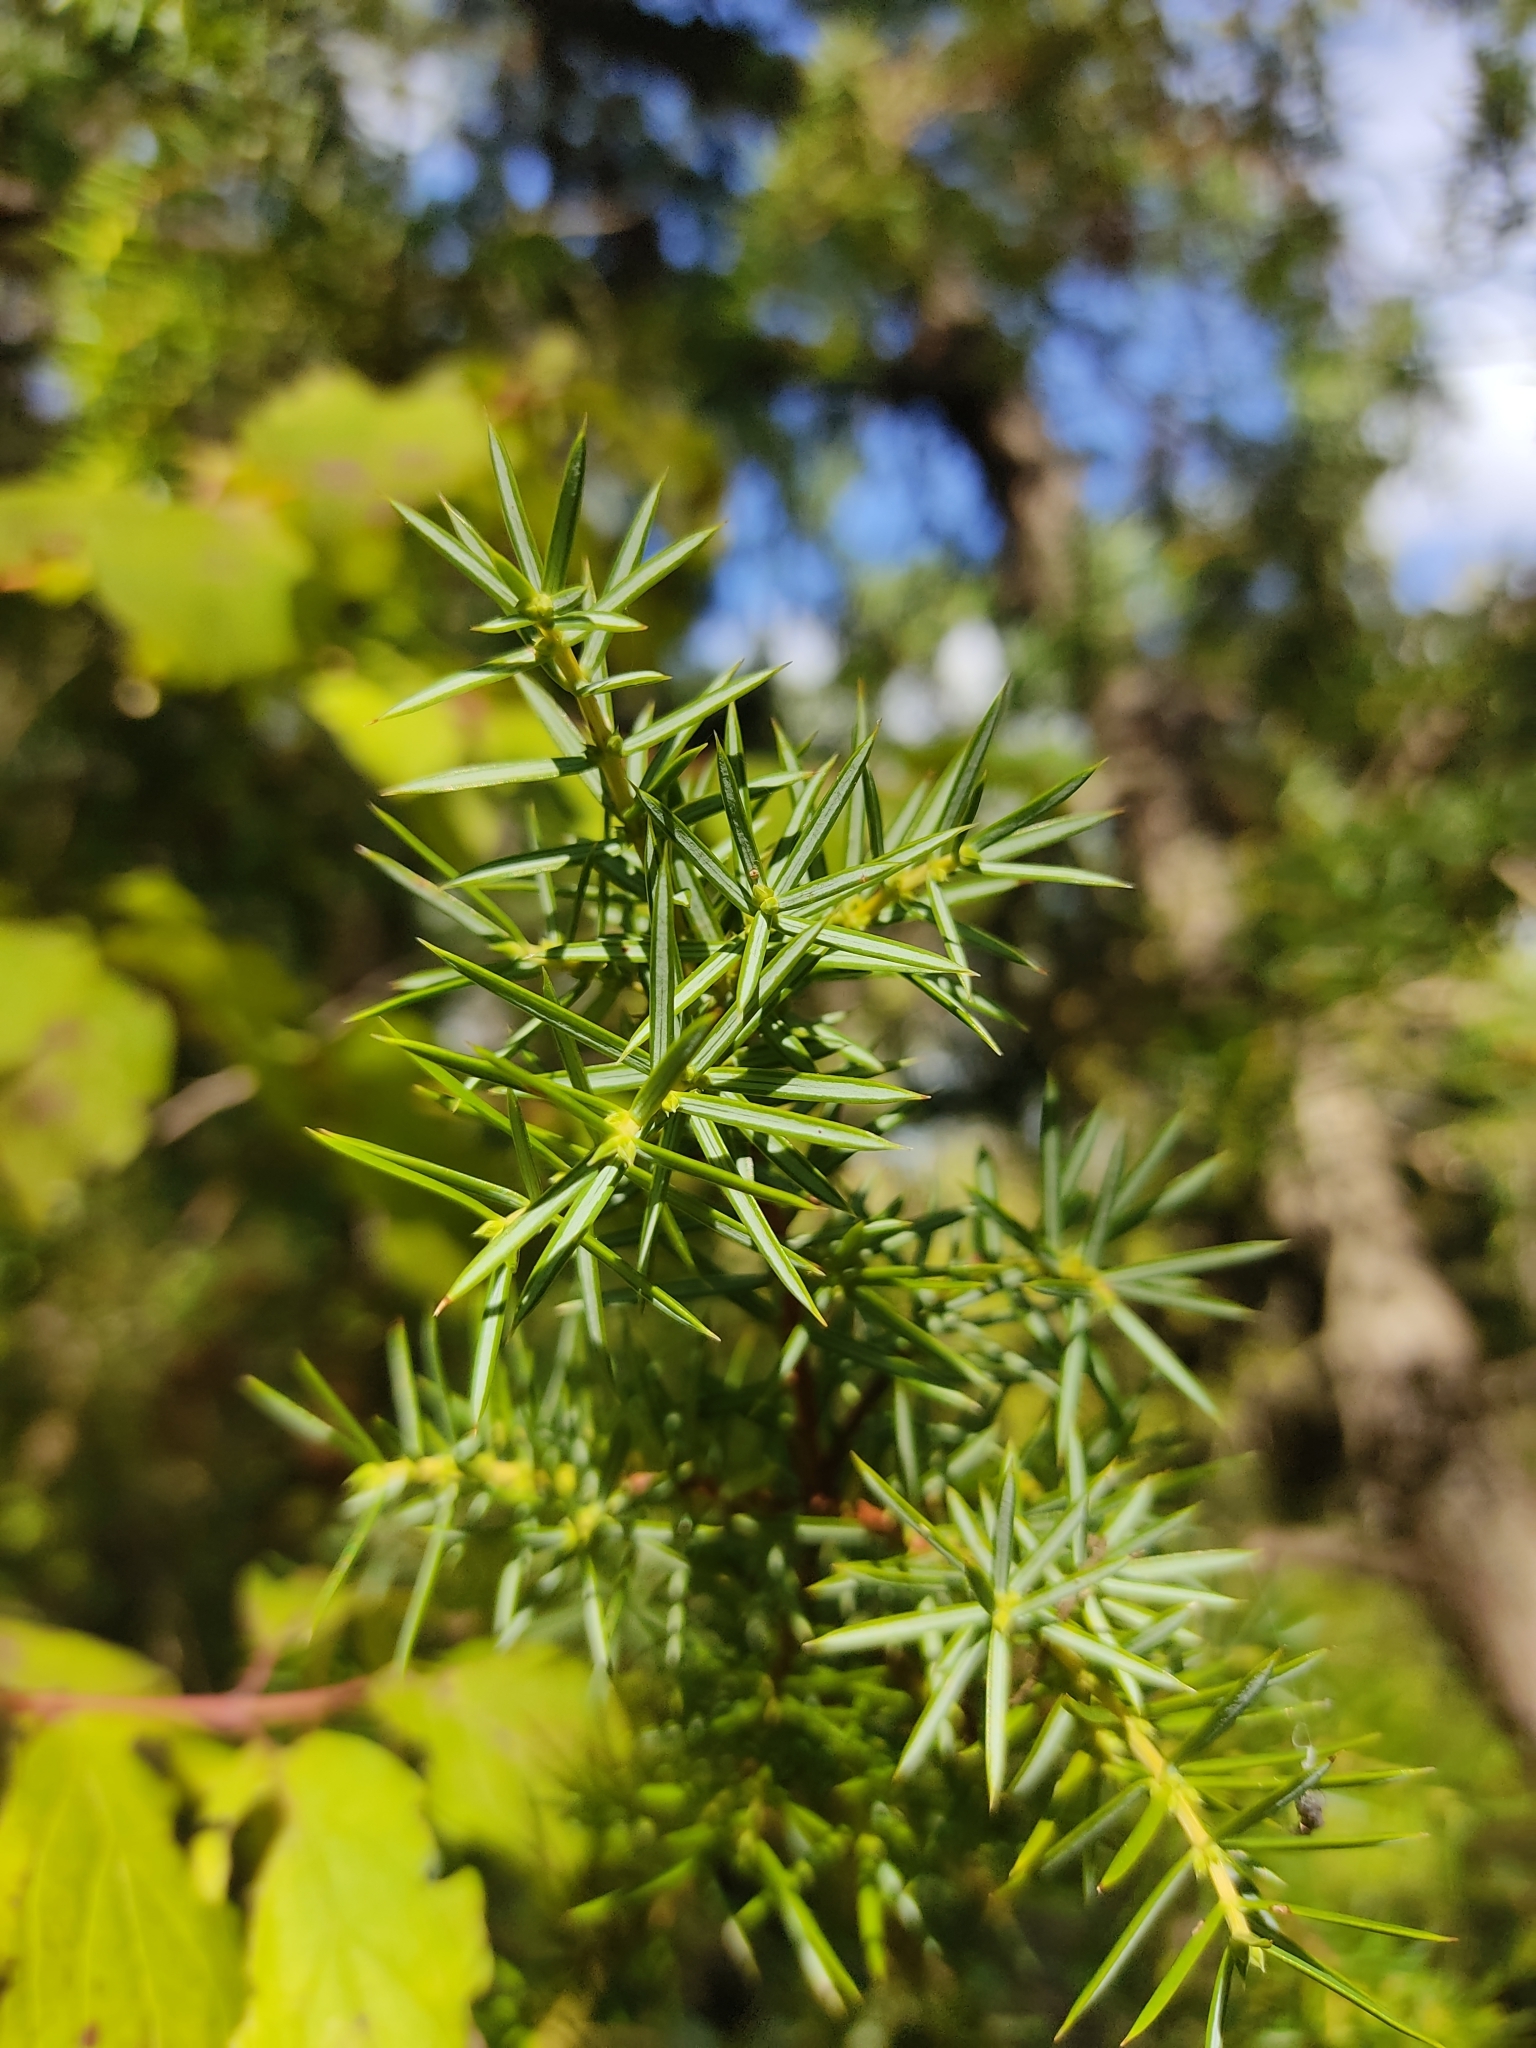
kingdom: Plantae
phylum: Tracheophyta
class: Pinopsida
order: Pinales
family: Cupressaceae
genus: Juniperus
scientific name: Juniperus communis
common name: Common juniper
